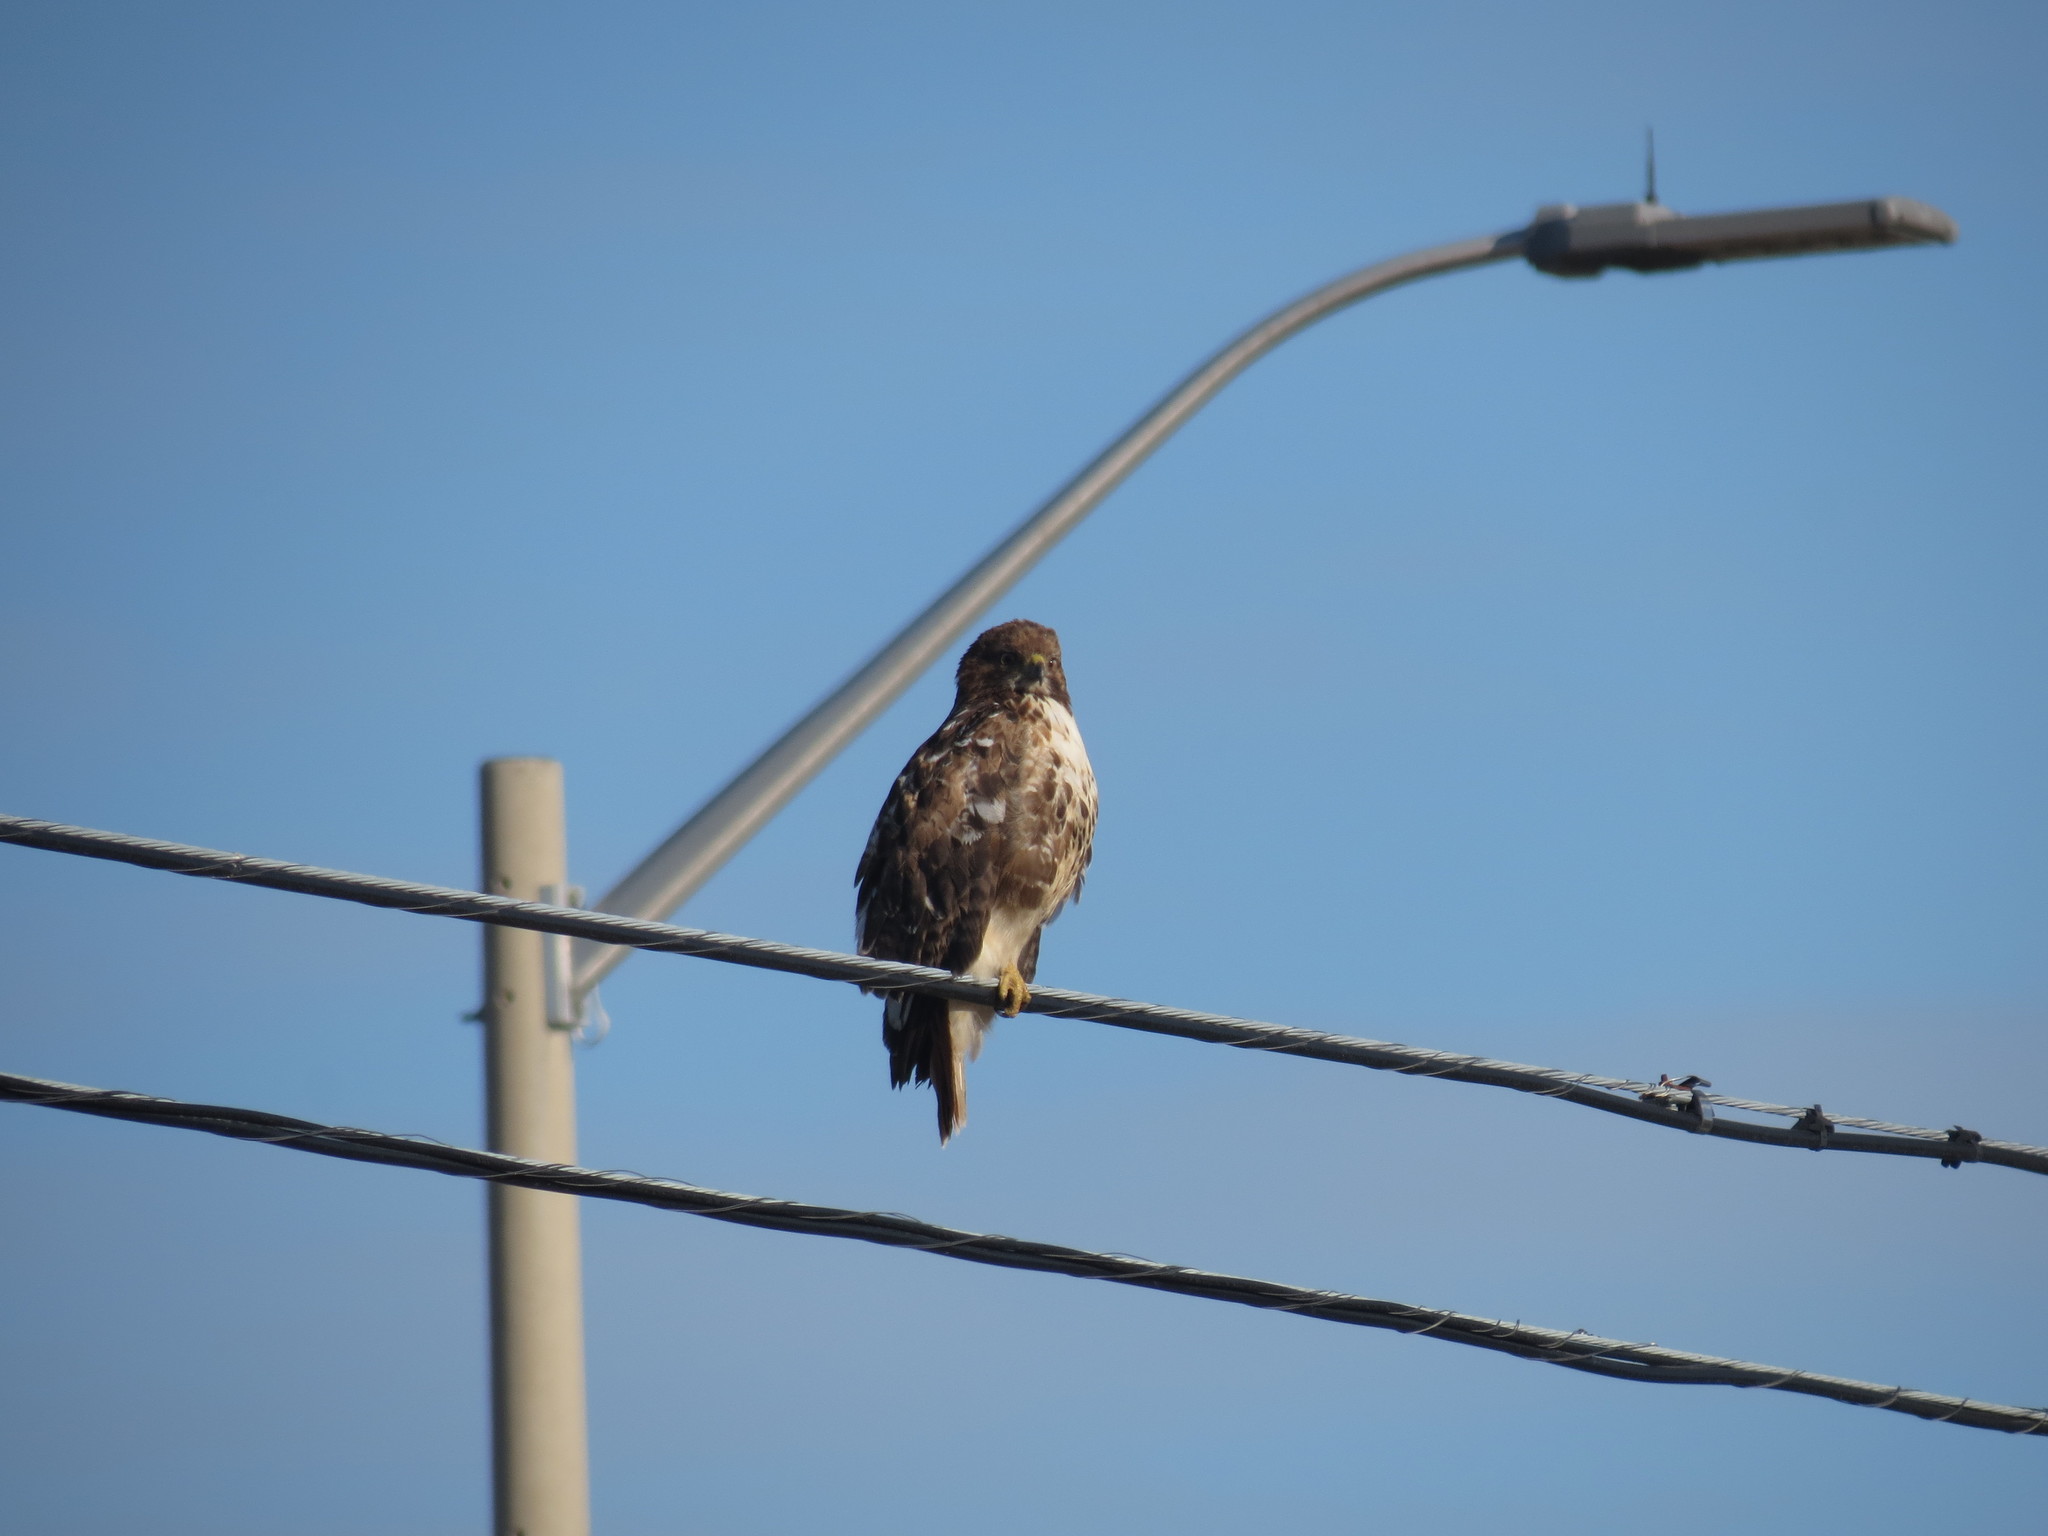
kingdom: Animalia
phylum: Chordata
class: Aves
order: Accipitriformes
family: Accipitridae
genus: Buteo
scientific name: Buteo jamaicensis
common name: Red-tailed hawk
